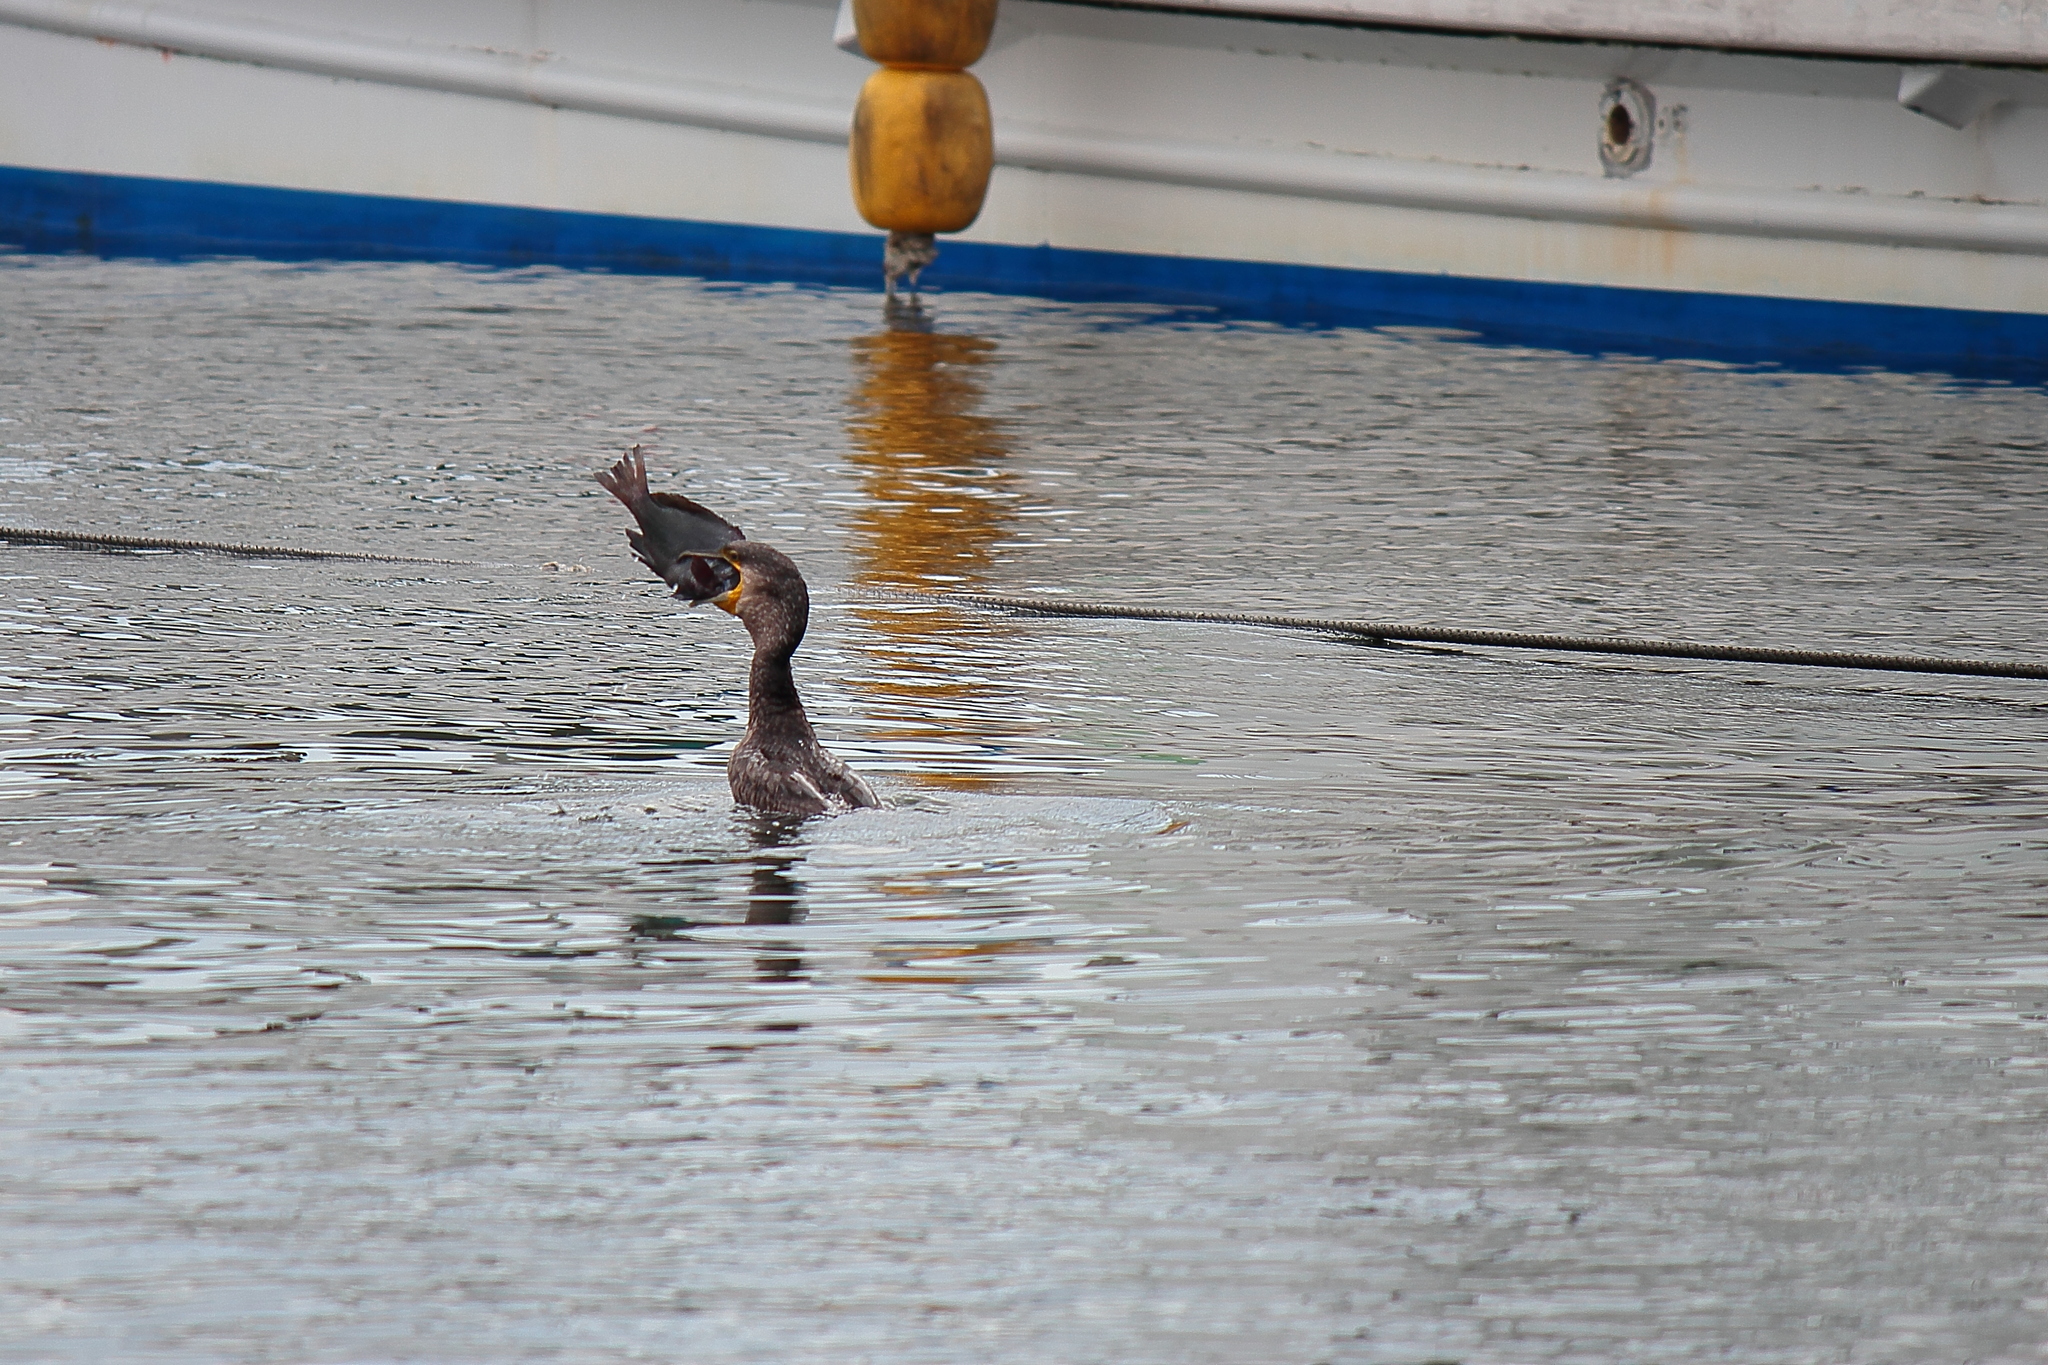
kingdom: Animalia
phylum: Chordata
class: Aves
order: Suliformes
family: Phalacrocoracidae
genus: Phalacrocorax
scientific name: Phalacrocorax carbo
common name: Great cormorant
